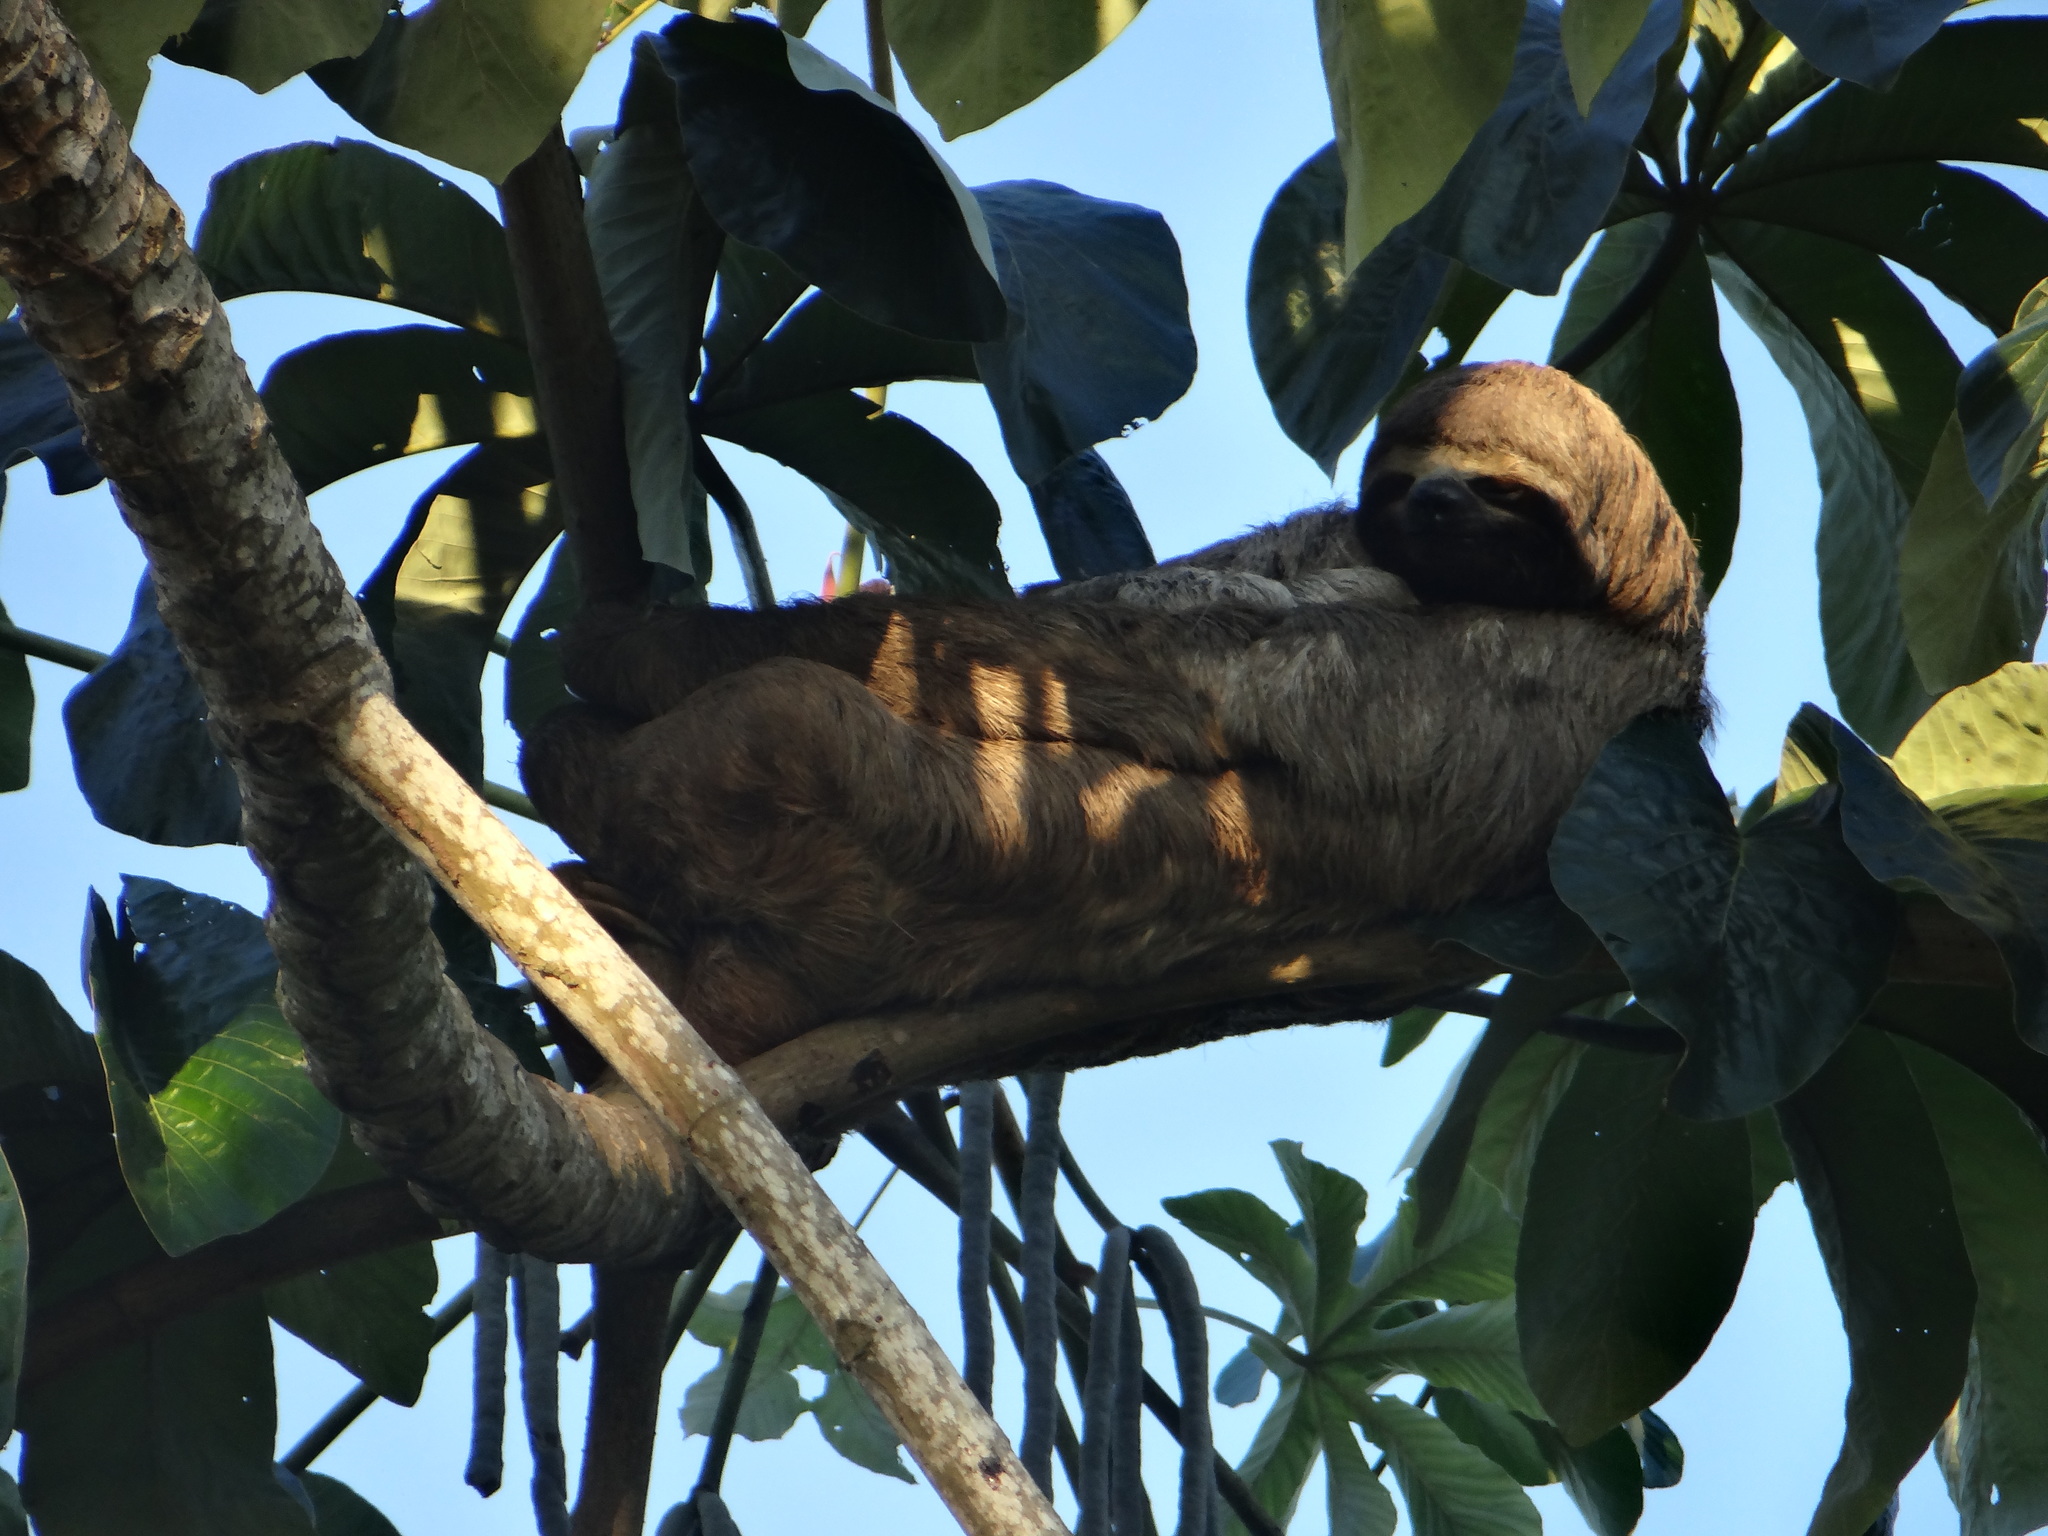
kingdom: Animalia
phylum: Chordata
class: Mammalia
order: Pilosa
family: Bradypodidae
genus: Bradypus
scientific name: Bradypus variegatus
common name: Brown-throated three-toed sloth
